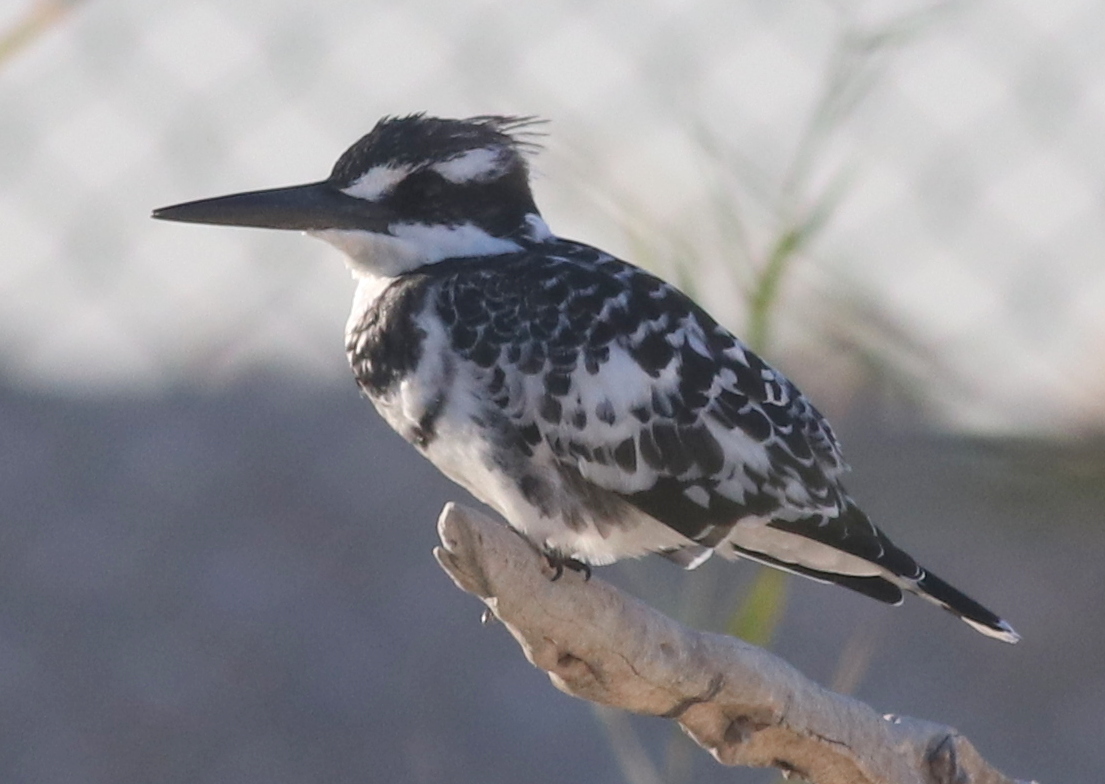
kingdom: Animalia
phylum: Chordata
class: Aves
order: Coraciiformes
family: Alcedinidae
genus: Ceryle
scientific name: Ceryle rudis
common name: Pied kingfisher
